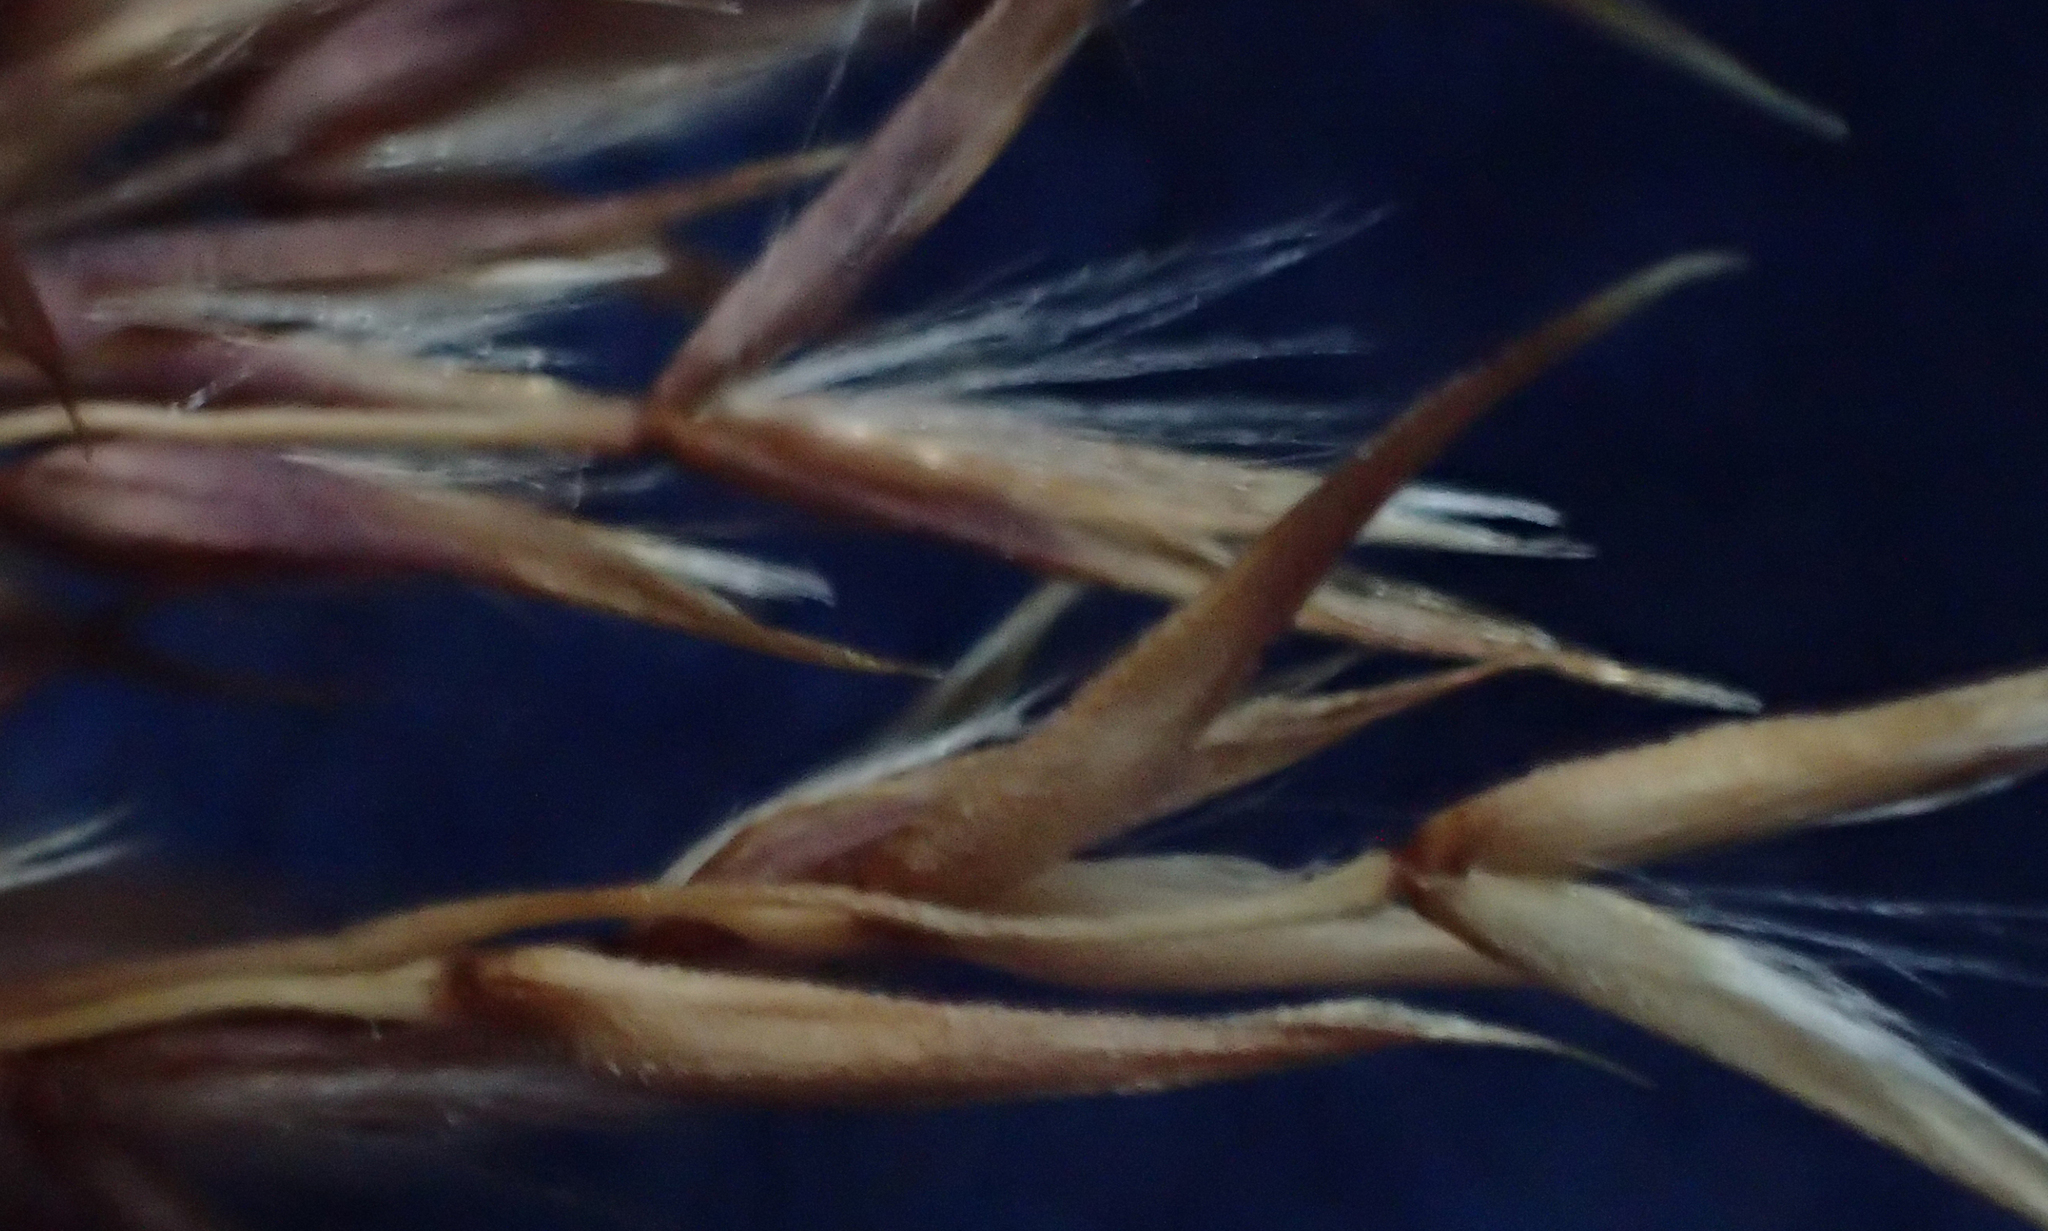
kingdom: Plantae
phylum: Tracheophyta
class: Liliopsida
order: Poales
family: Poaceae
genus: Calamagrostis
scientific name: Calamagrostis canadensis
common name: Canada bluejoint
